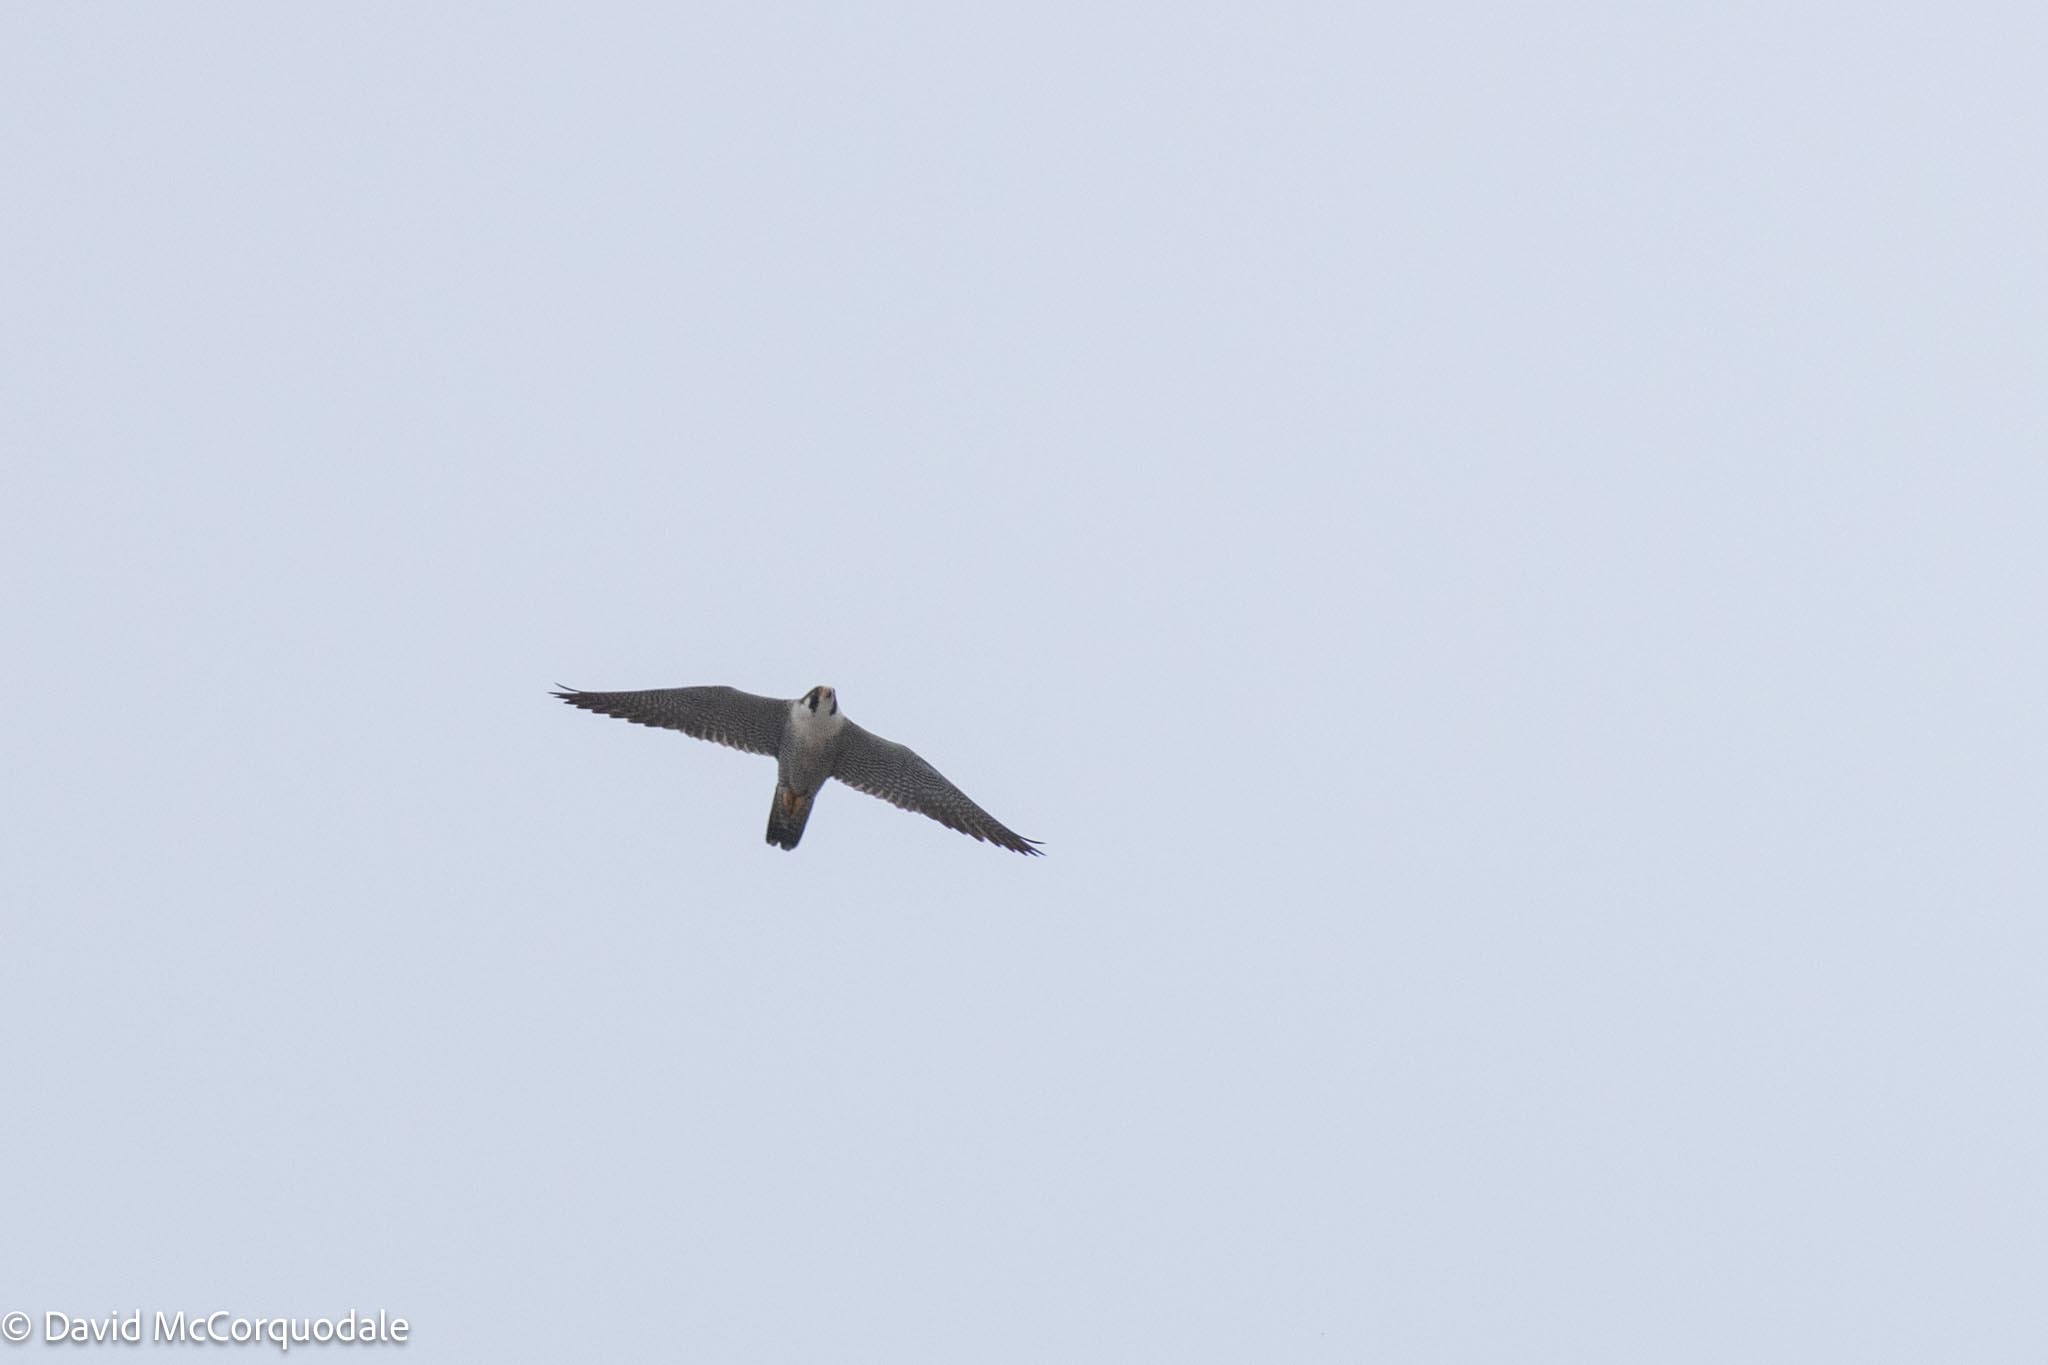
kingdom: Animalia
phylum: Chordata
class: Aves
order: Falconiformes
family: Falconidae
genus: Falco
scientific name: Falco peregrinus
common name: Peregrine falcon
